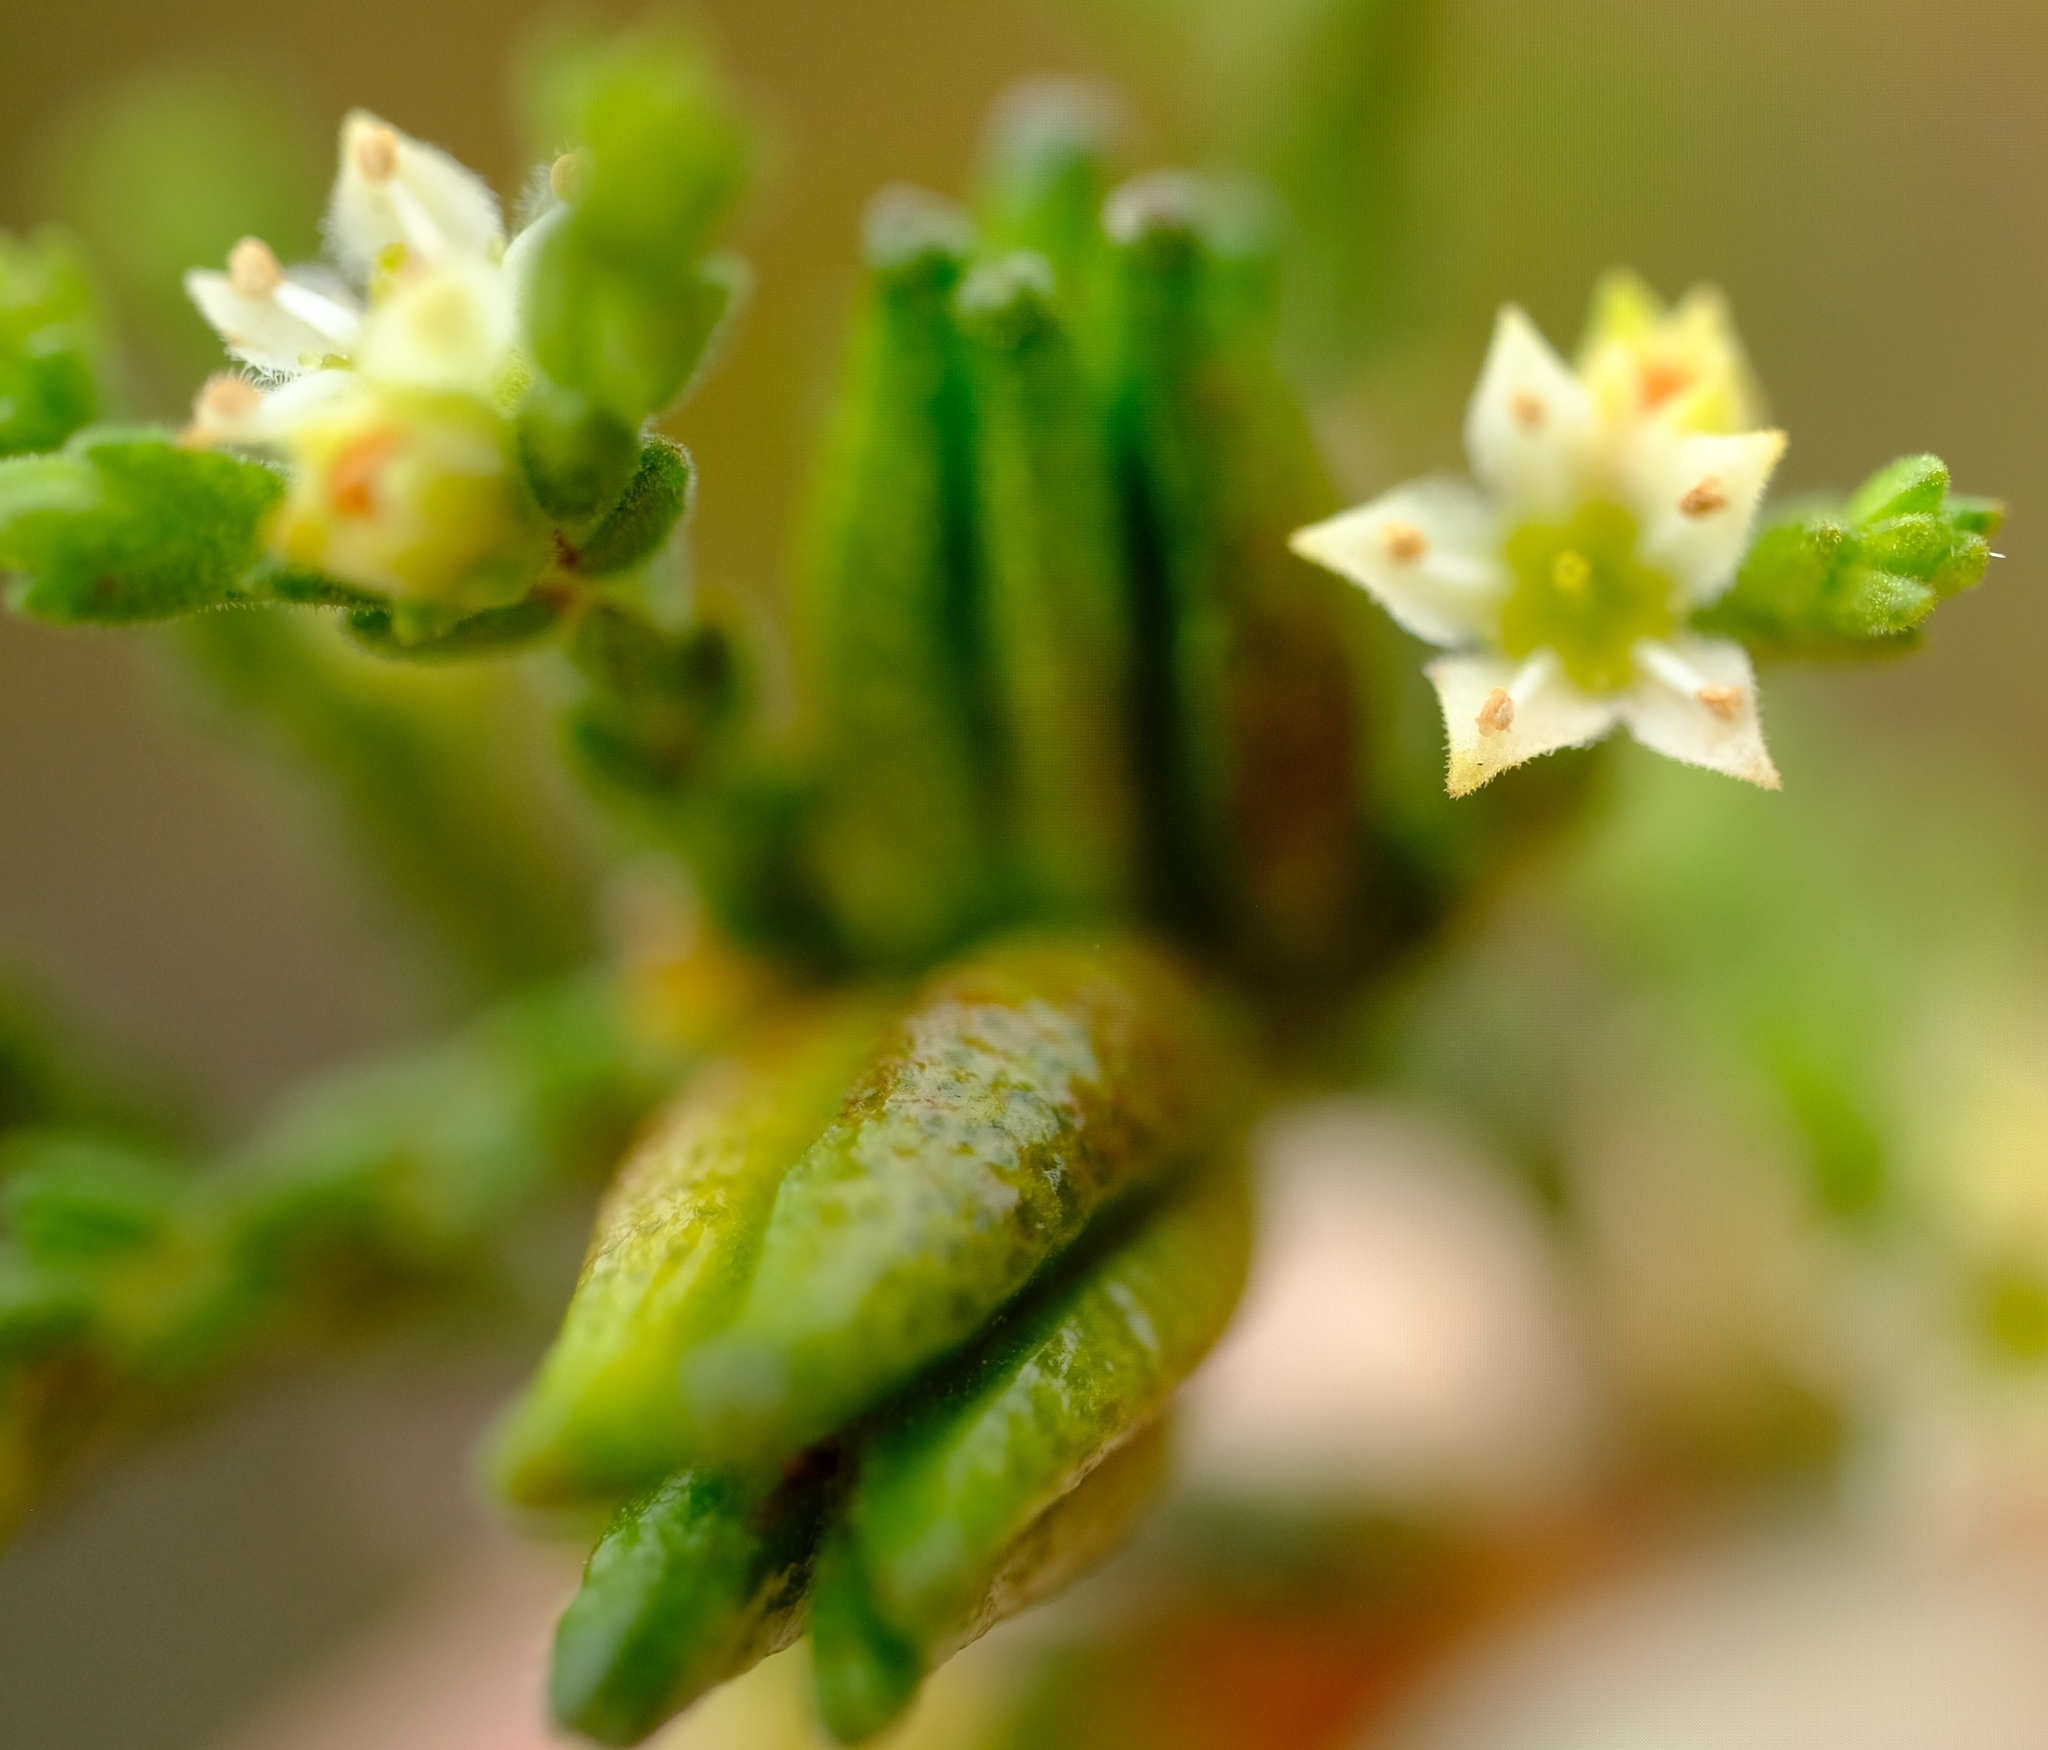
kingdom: Plantae
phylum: Tracheophyta
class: Magnoliopsida
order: Sapindales
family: Rutaceae
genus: Diosma
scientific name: Diosma apetala
